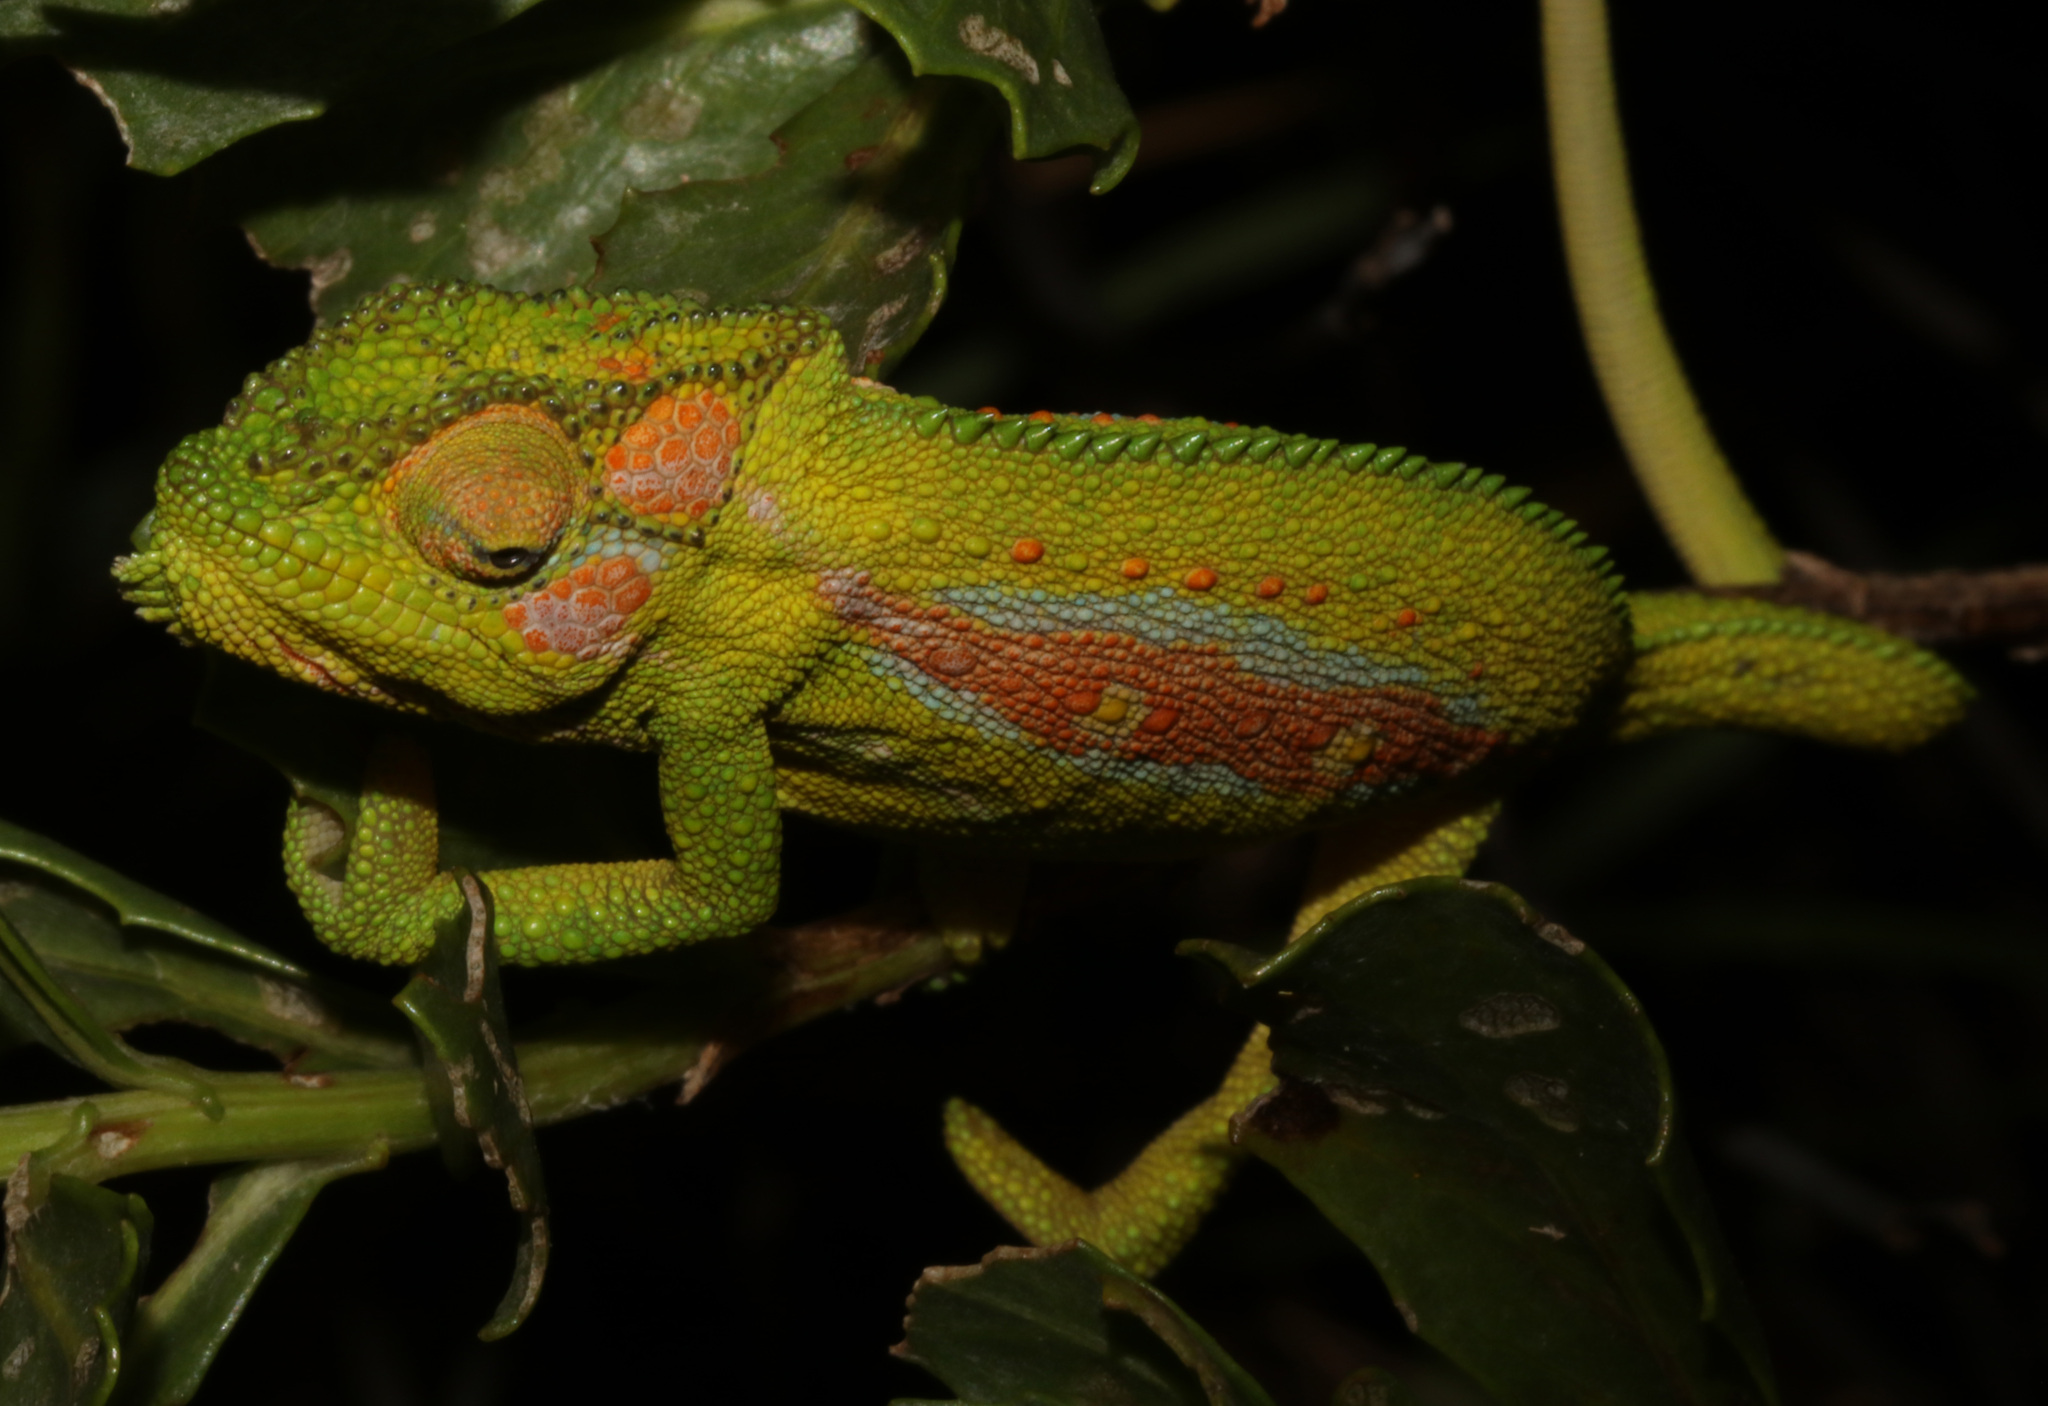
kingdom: Animalia
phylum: Chordata
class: Squamata
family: Chamaeleonidae
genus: Bradypodion
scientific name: Bradypodion pumilum
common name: Cape dwarf chameleon
